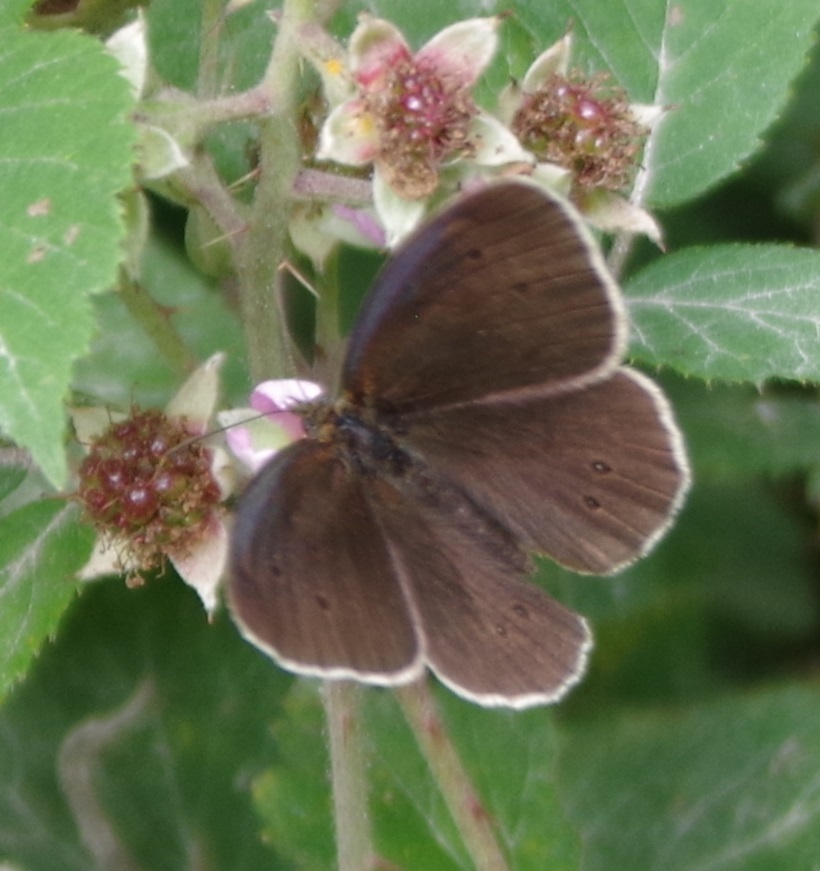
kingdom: Animalia
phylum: Arthropoda
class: Insecta
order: Lepidoptera
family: Nymphalidae
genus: Aphantopus
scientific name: Aphantopus hyperantus
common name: Ringlet
